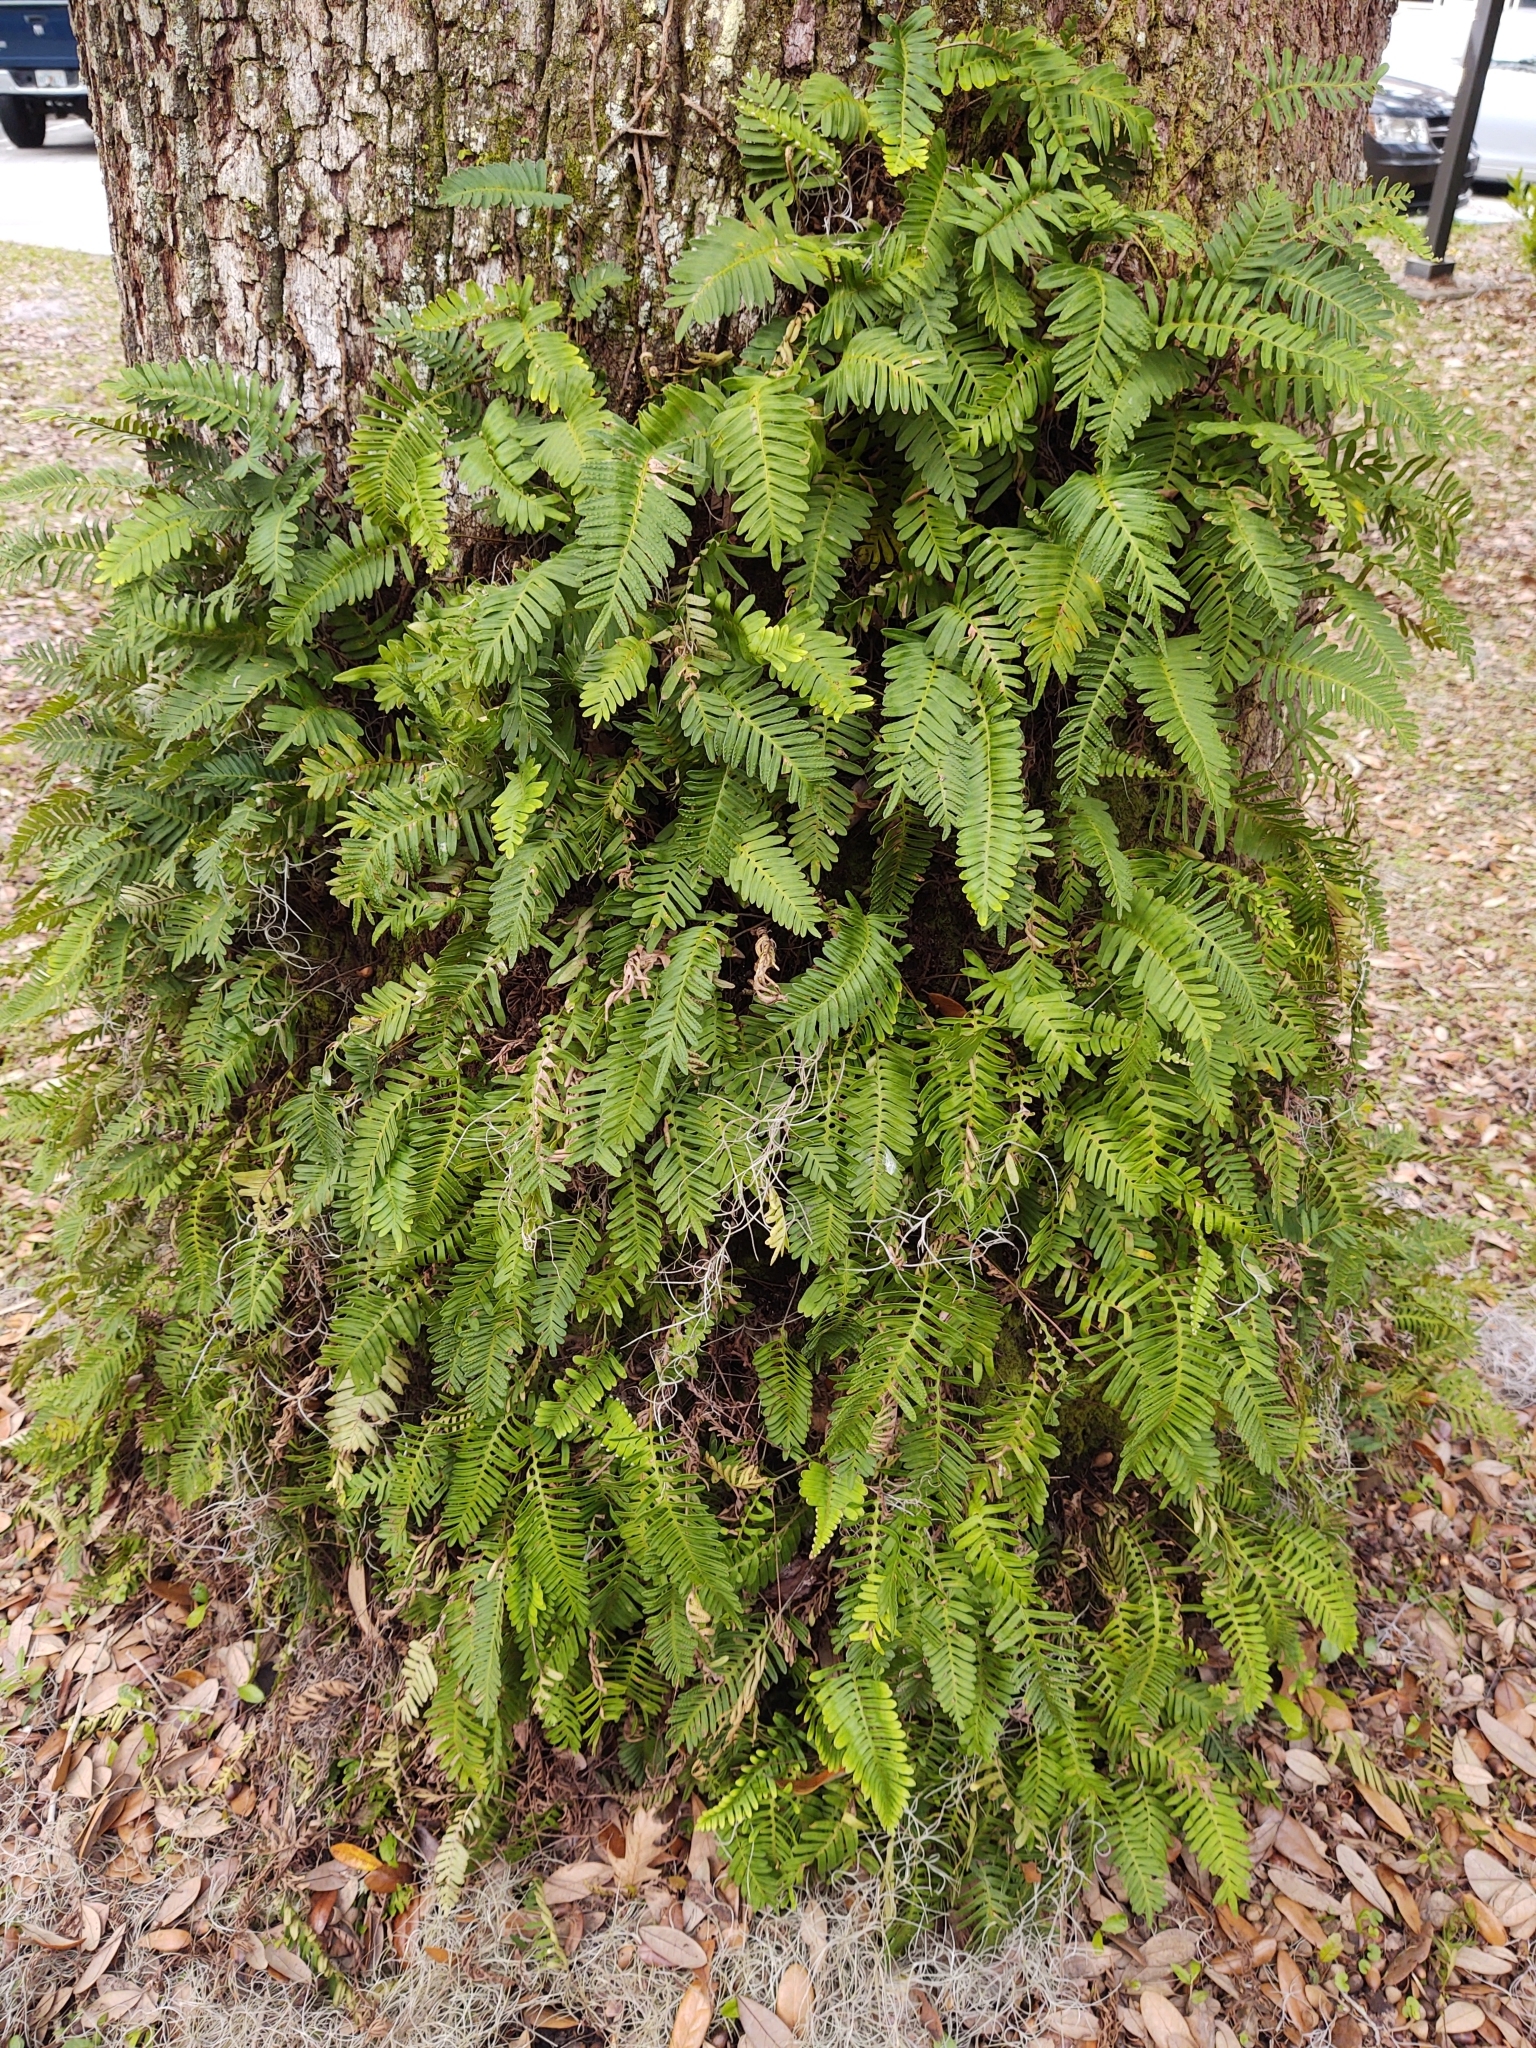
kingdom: Plantae
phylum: Tracheophyta
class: Polypodiopsida
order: Polypodiales
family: Polypodiaceae
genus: Pleopeltis
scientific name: Pleopeltis michauxiana
